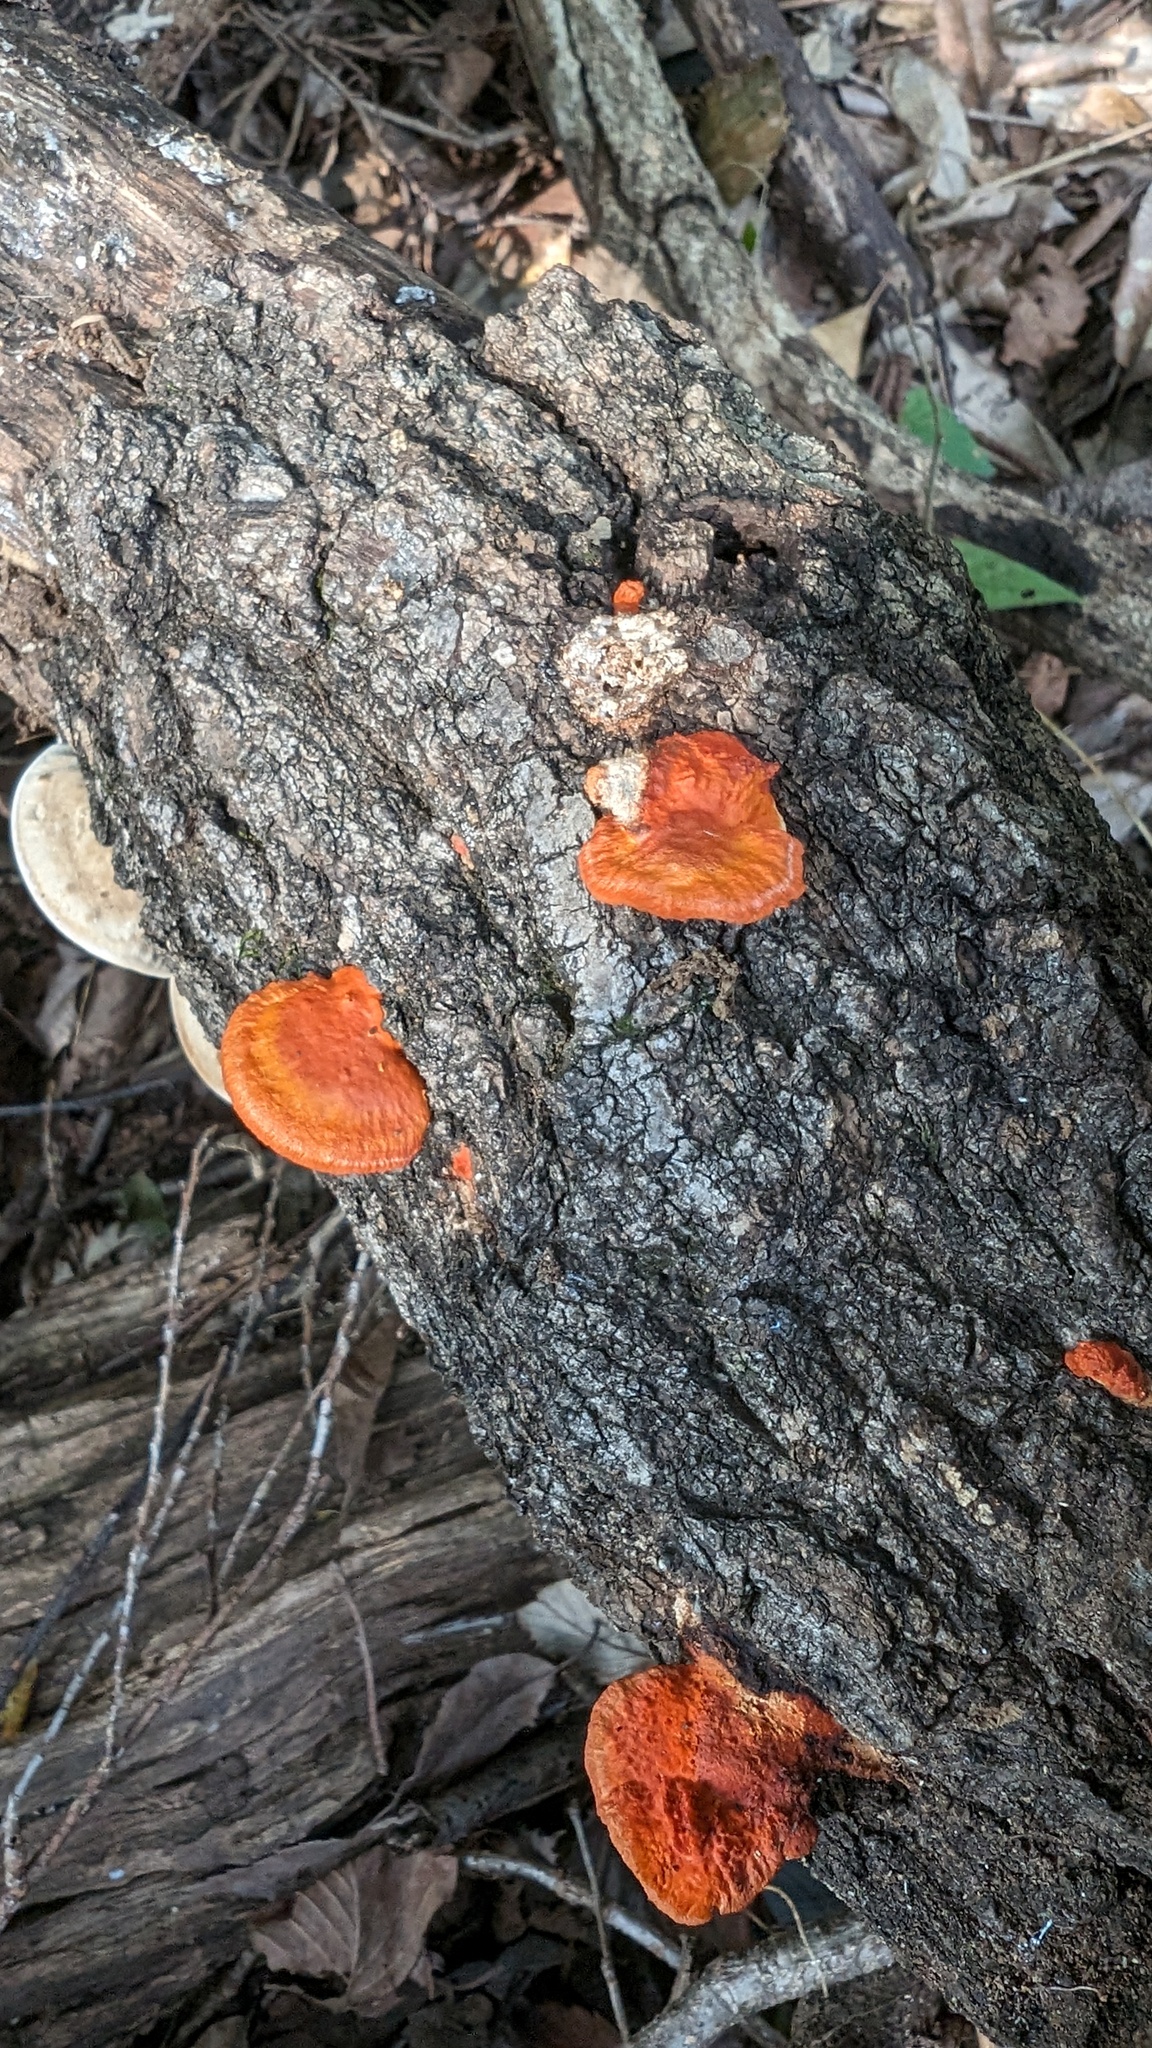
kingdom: Fungi
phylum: Basidiomycota
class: Agaricomycetes
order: Polyporales
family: Polyporaceae
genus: Trametes
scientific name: Trametes coccinea
